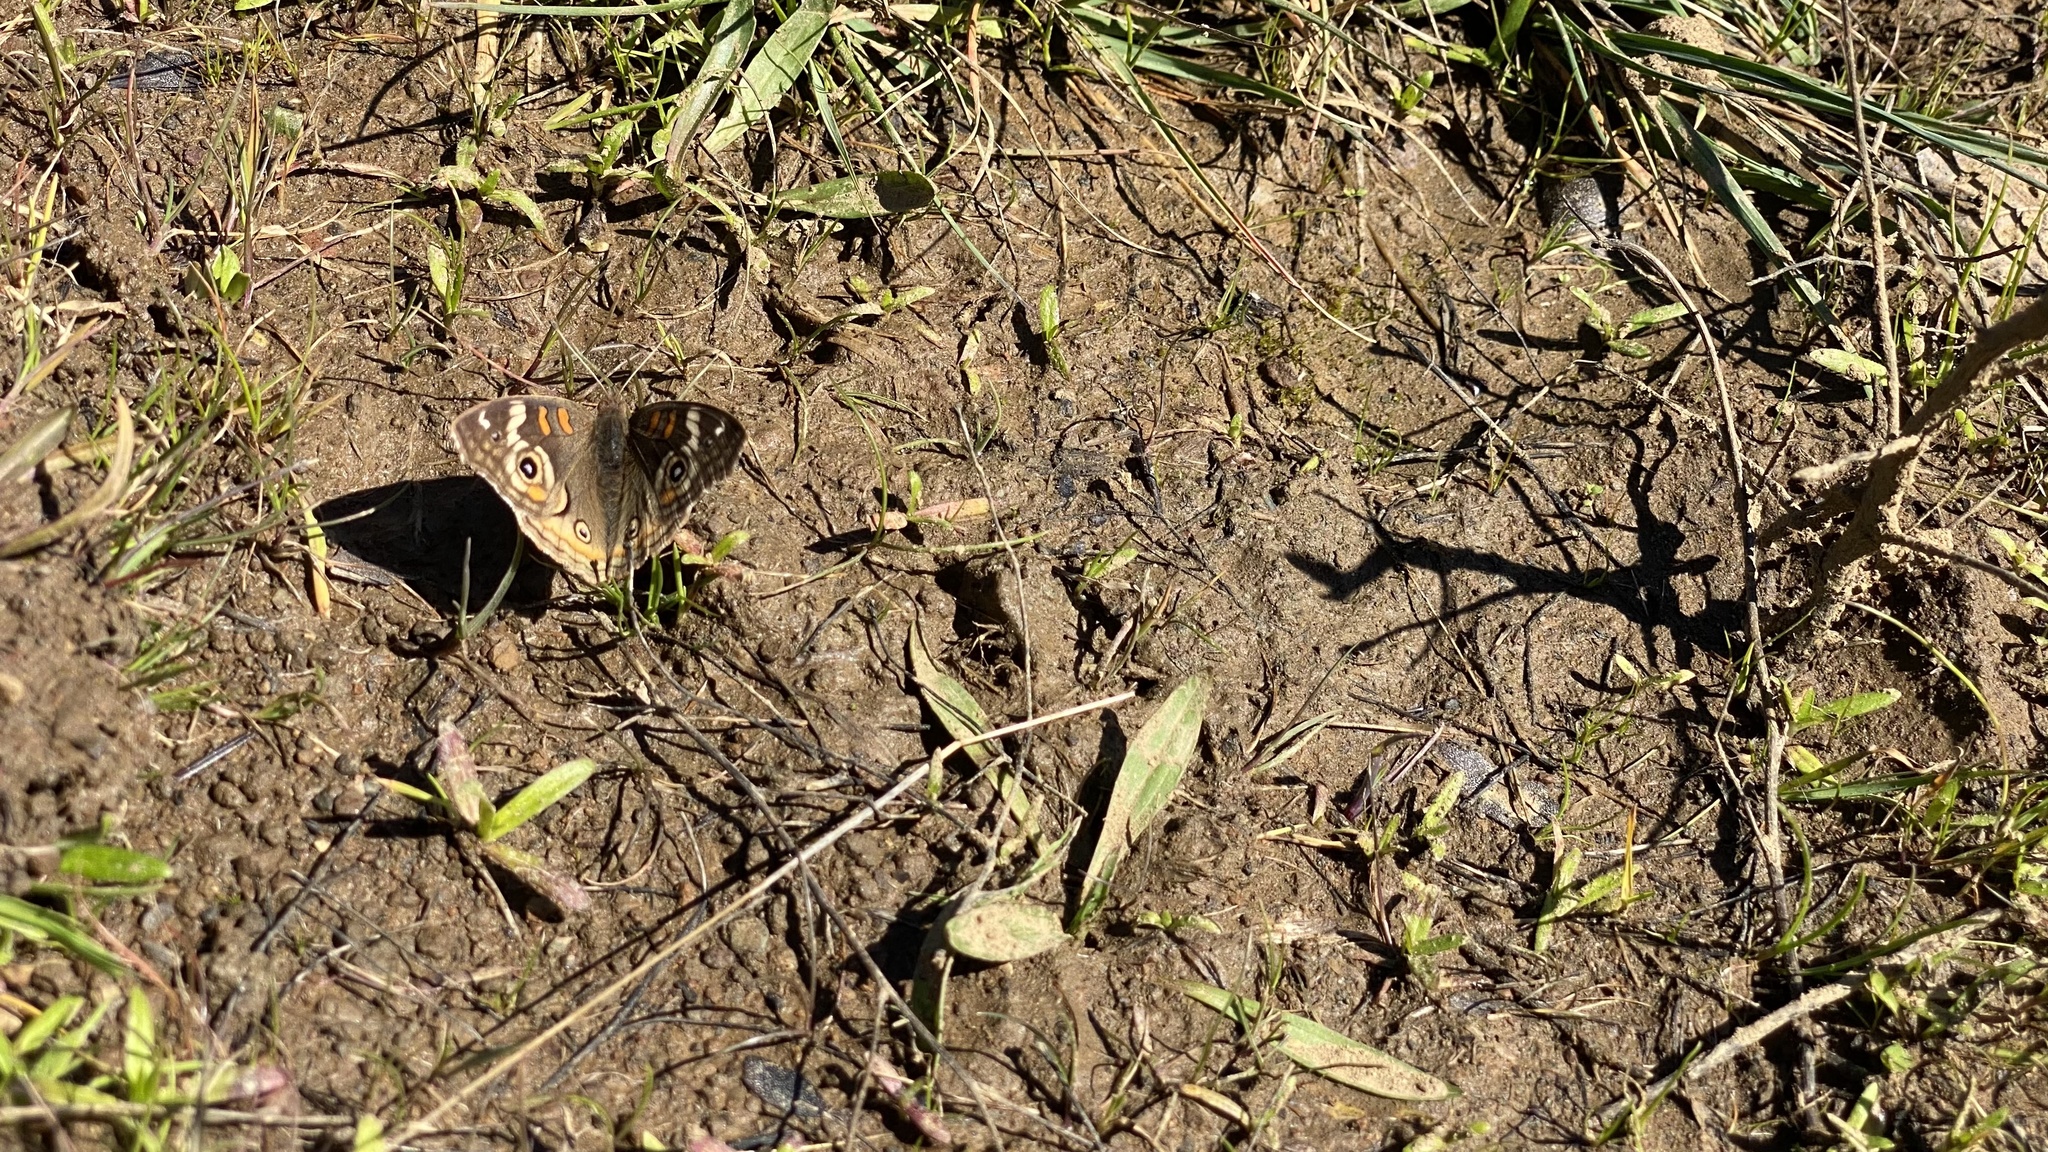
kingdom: Animalia
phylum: Arthropoda
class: Insecta
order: Lepidoptera
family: Nymphalidae
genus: Junonia
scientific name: Junonia grisea
